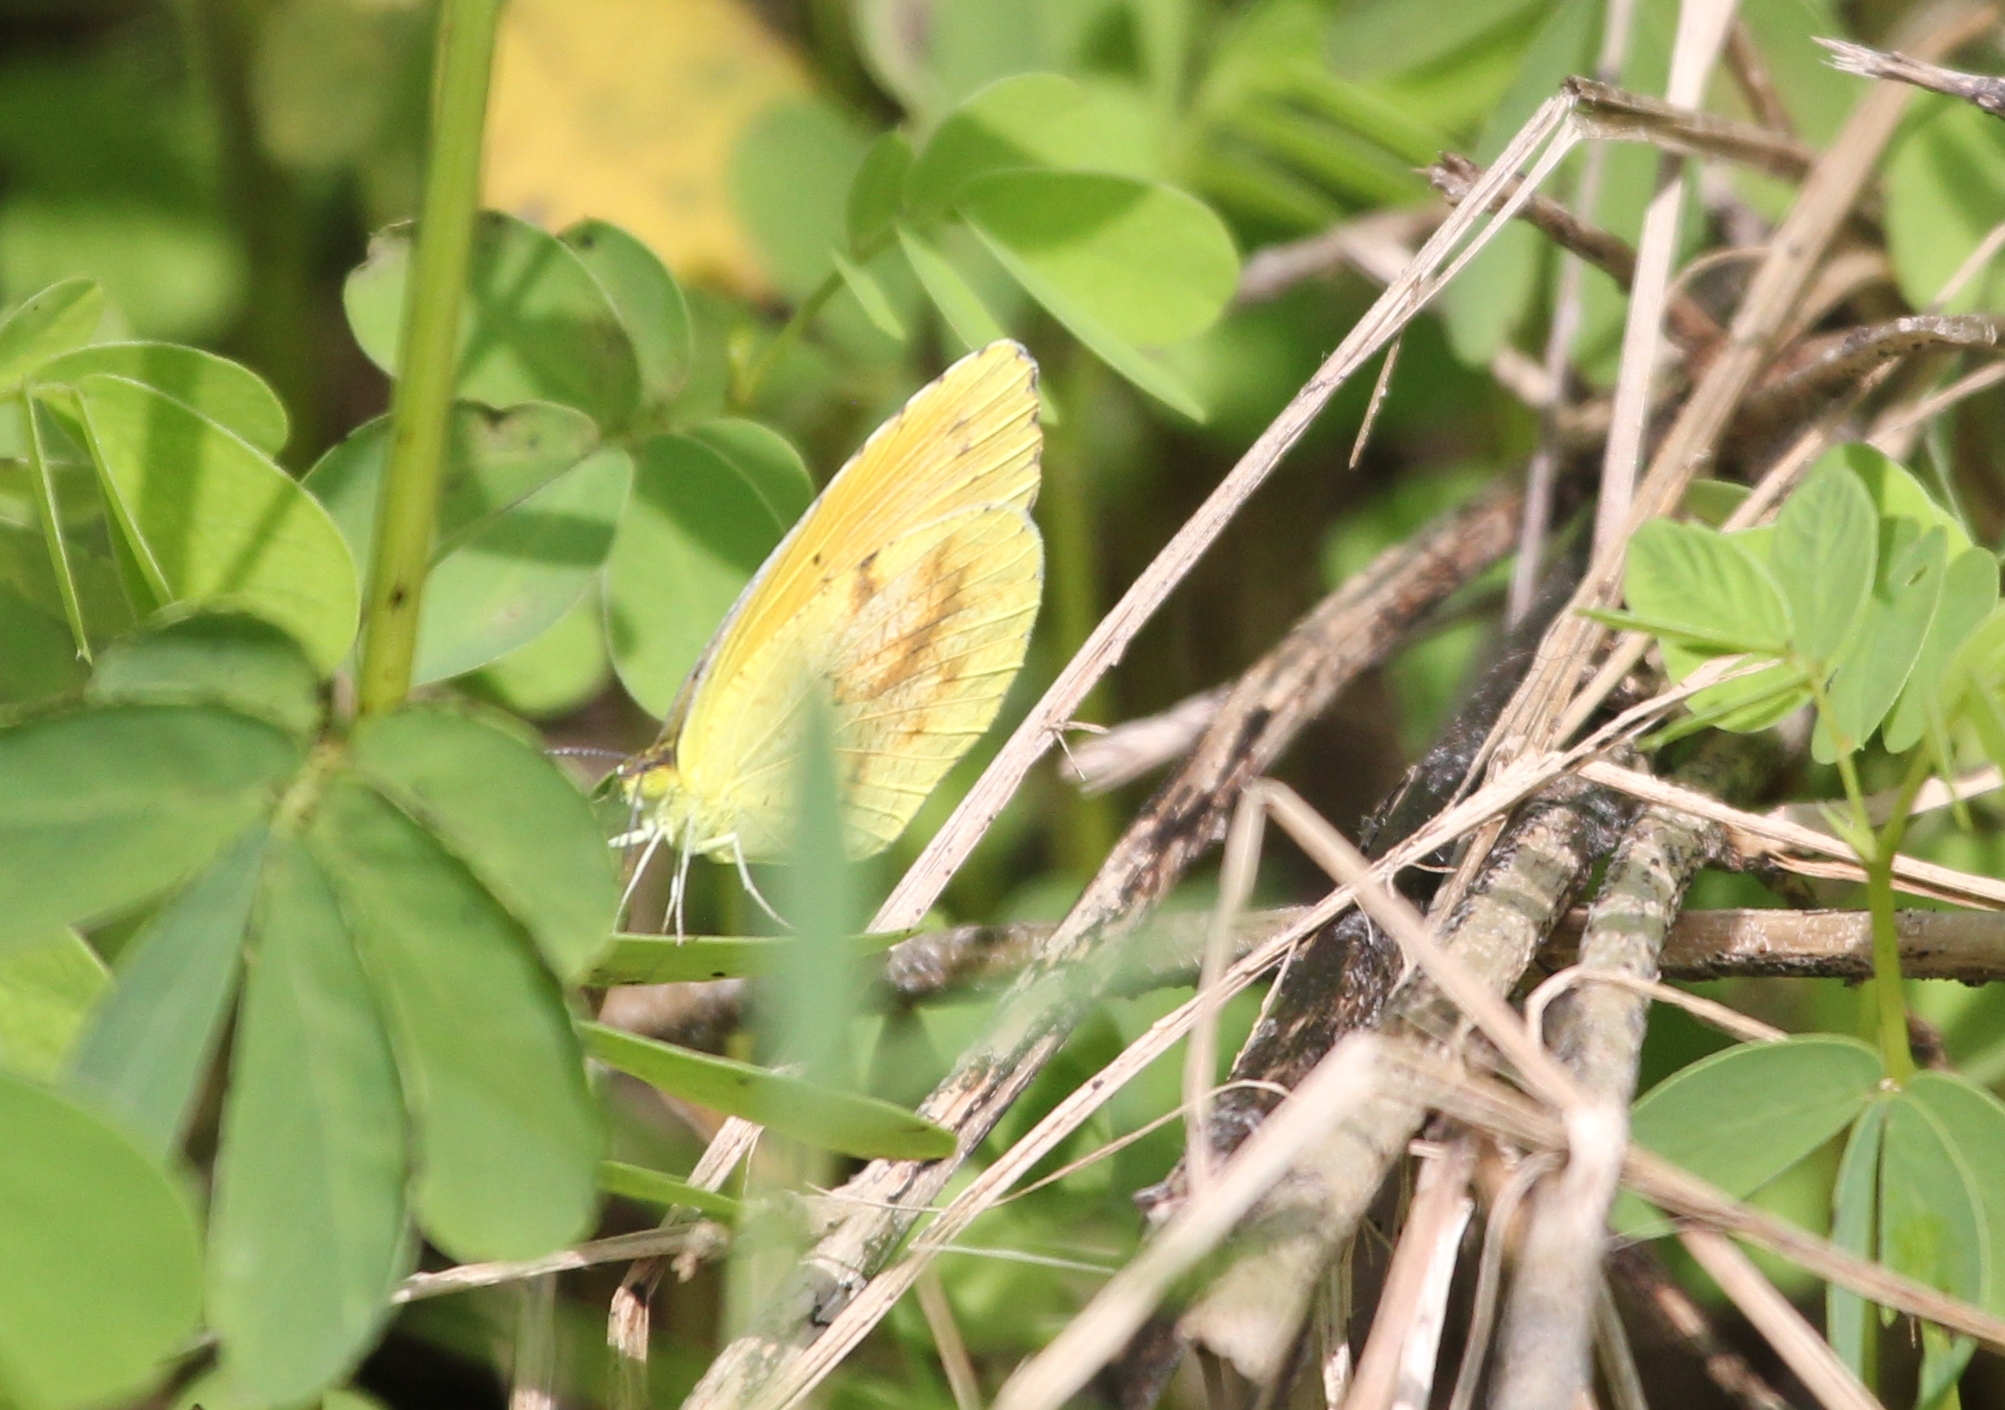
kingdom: Animalia
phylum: Arthropoda
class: Insecta
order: Lepidoptera
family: Pieridae
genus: Abaeis
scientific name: Abaeis nicippe
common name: Sleepy orange
